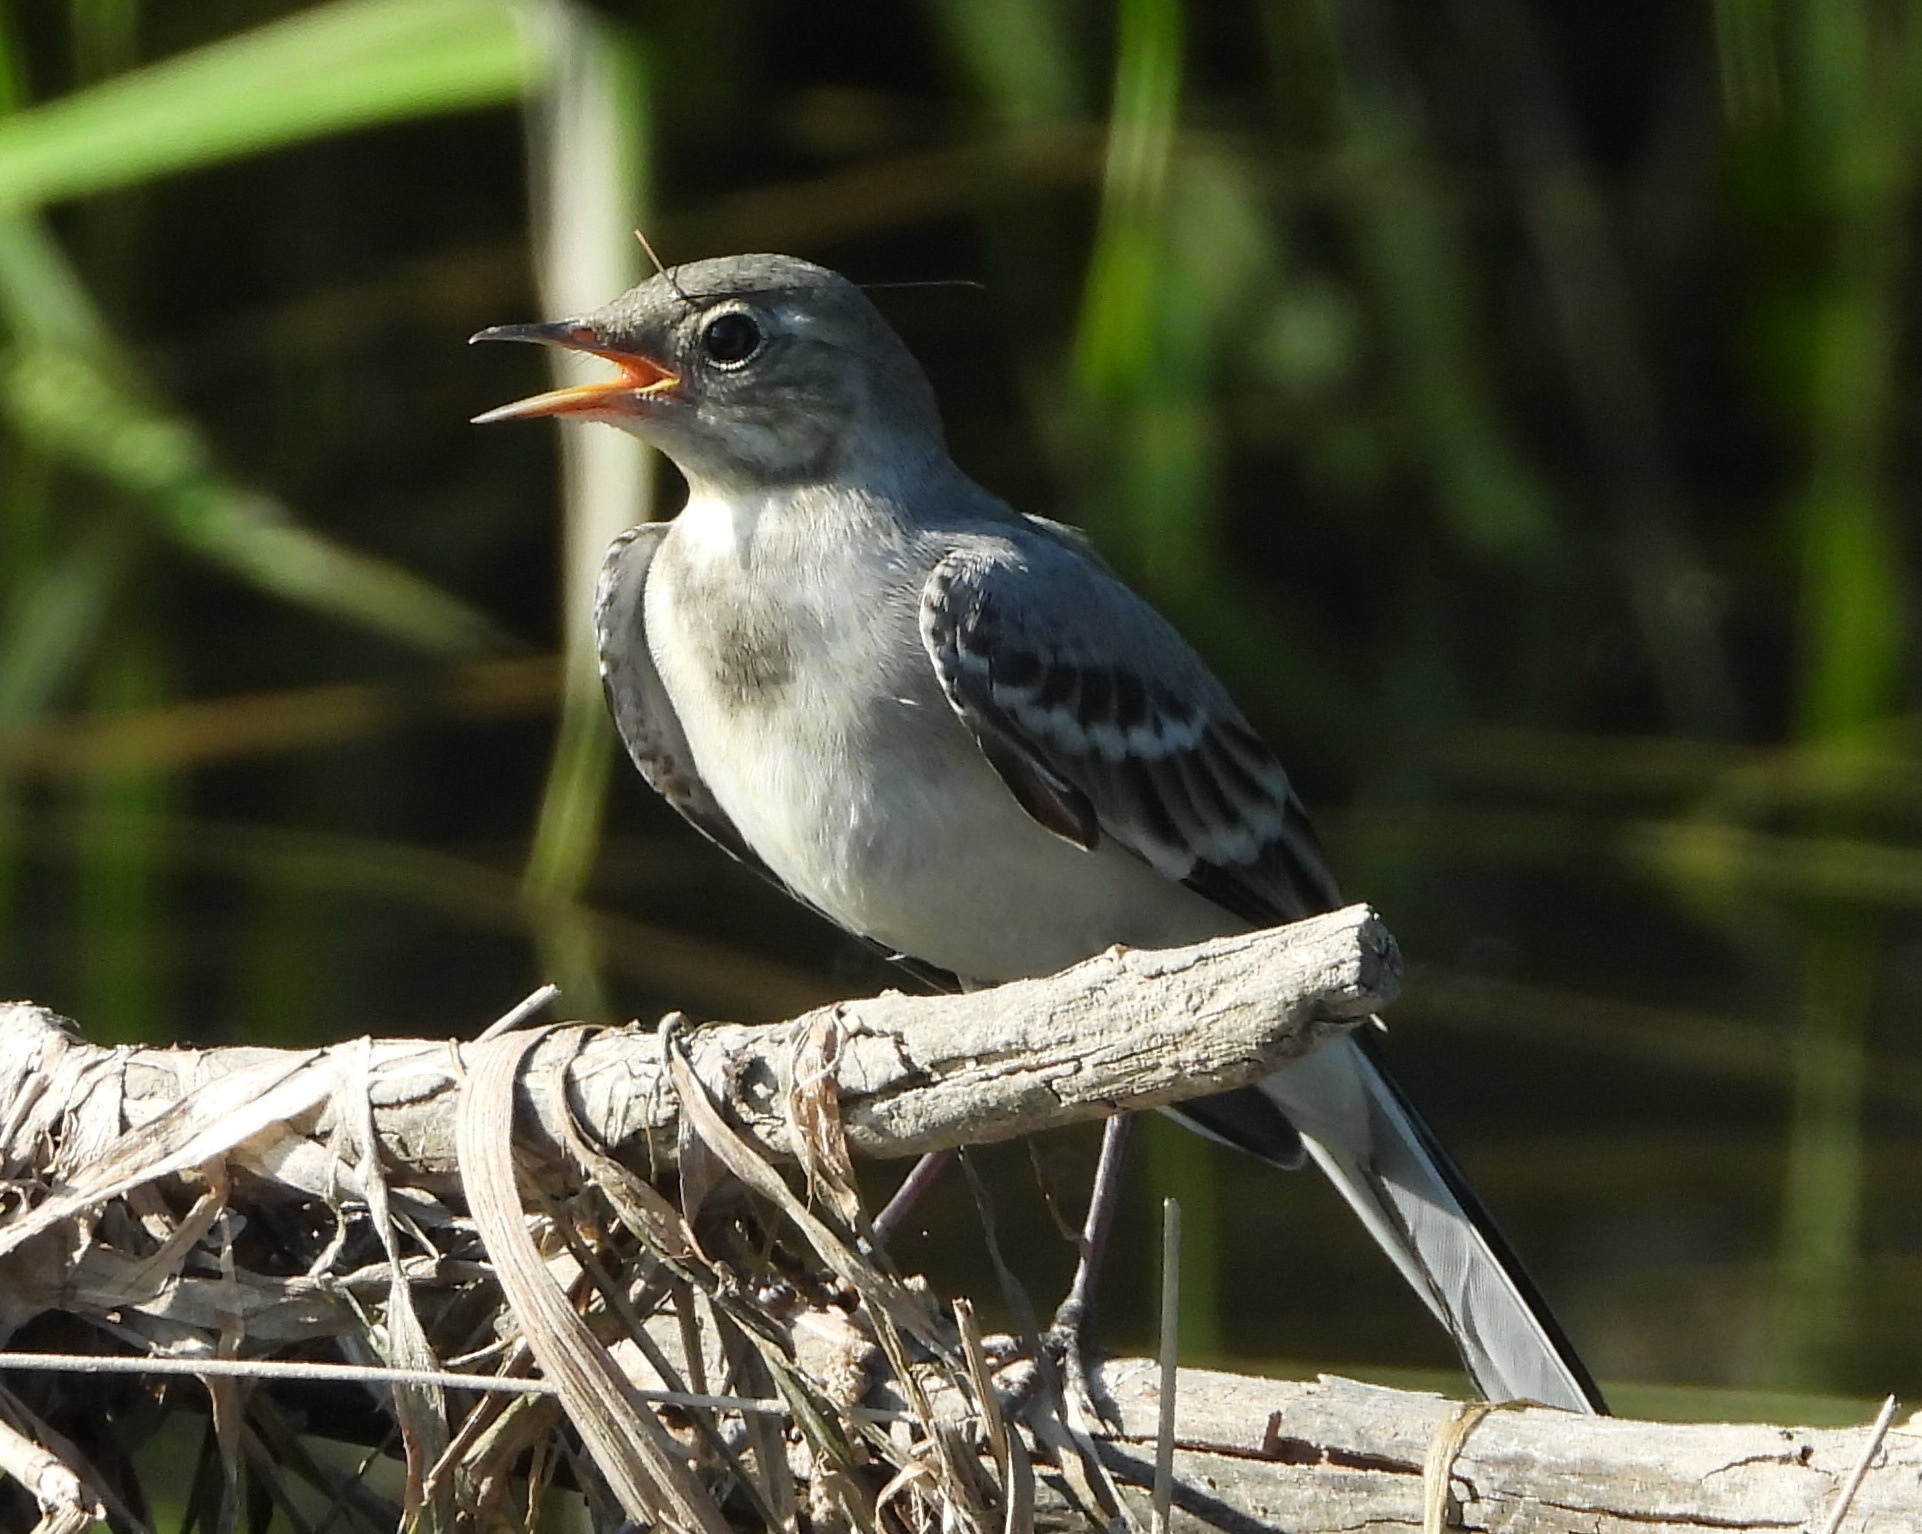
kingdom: Animalia
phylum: Chordata
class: Aves
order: Passeriformes
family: Motacillidae
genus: Motacilla
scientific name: Motacilla alba
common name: White wagtail
